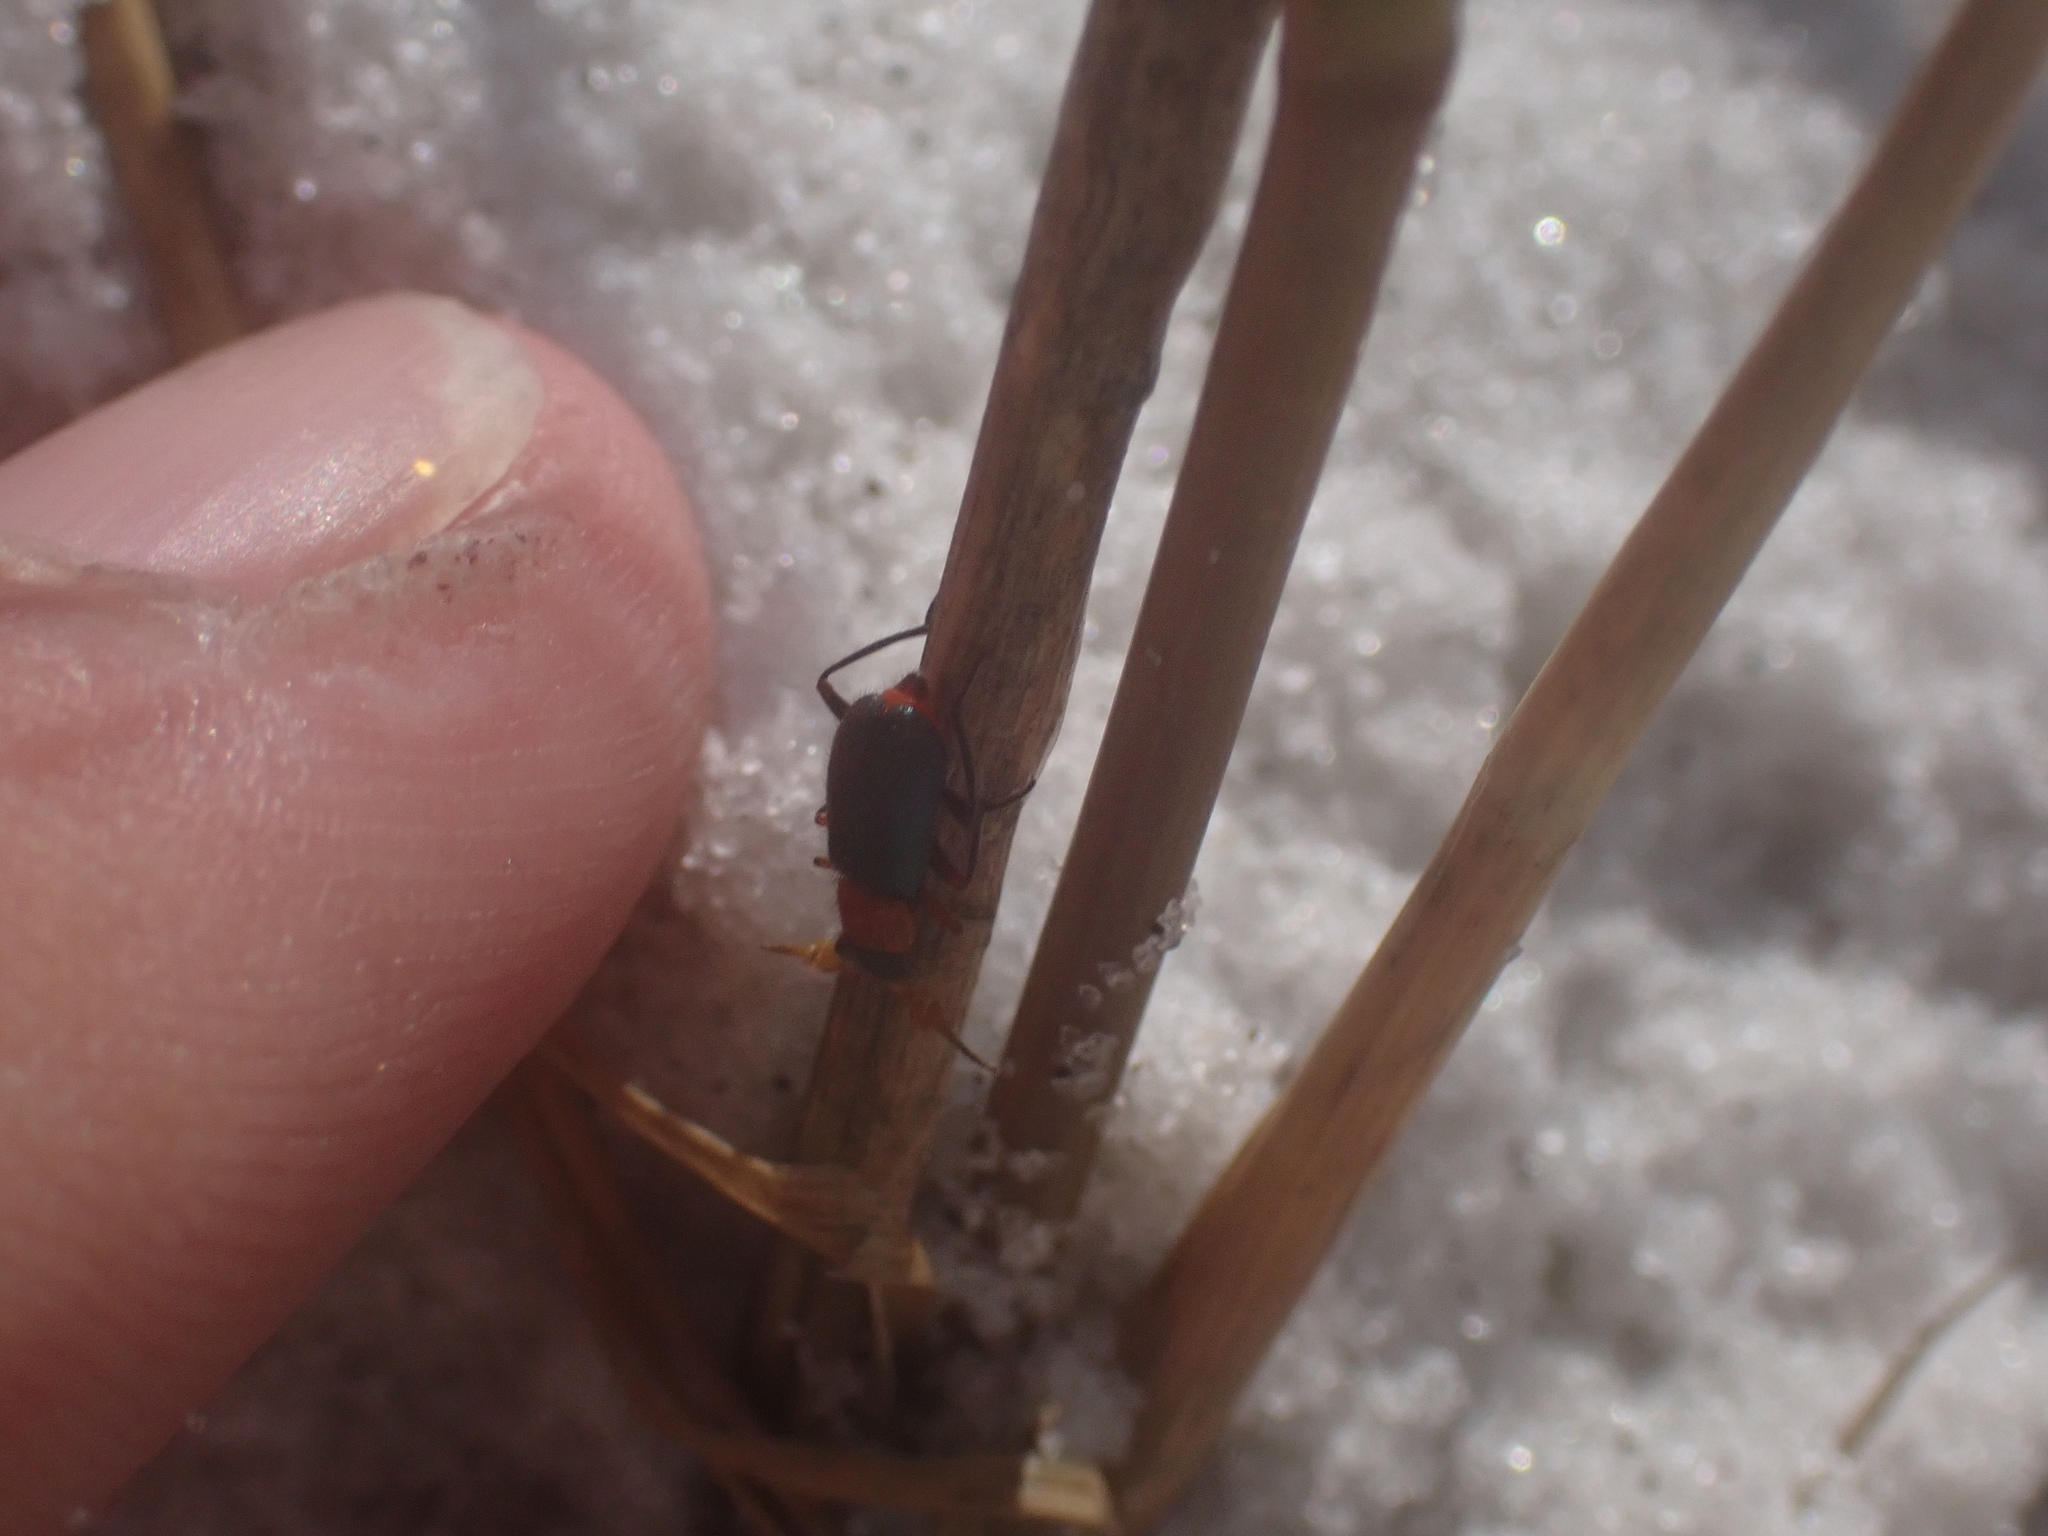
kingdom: Animalia
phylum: Arthropoda
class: Insecta
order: Coleoptera
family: Melyridae
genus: Collops
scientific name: Collops nigriceps
